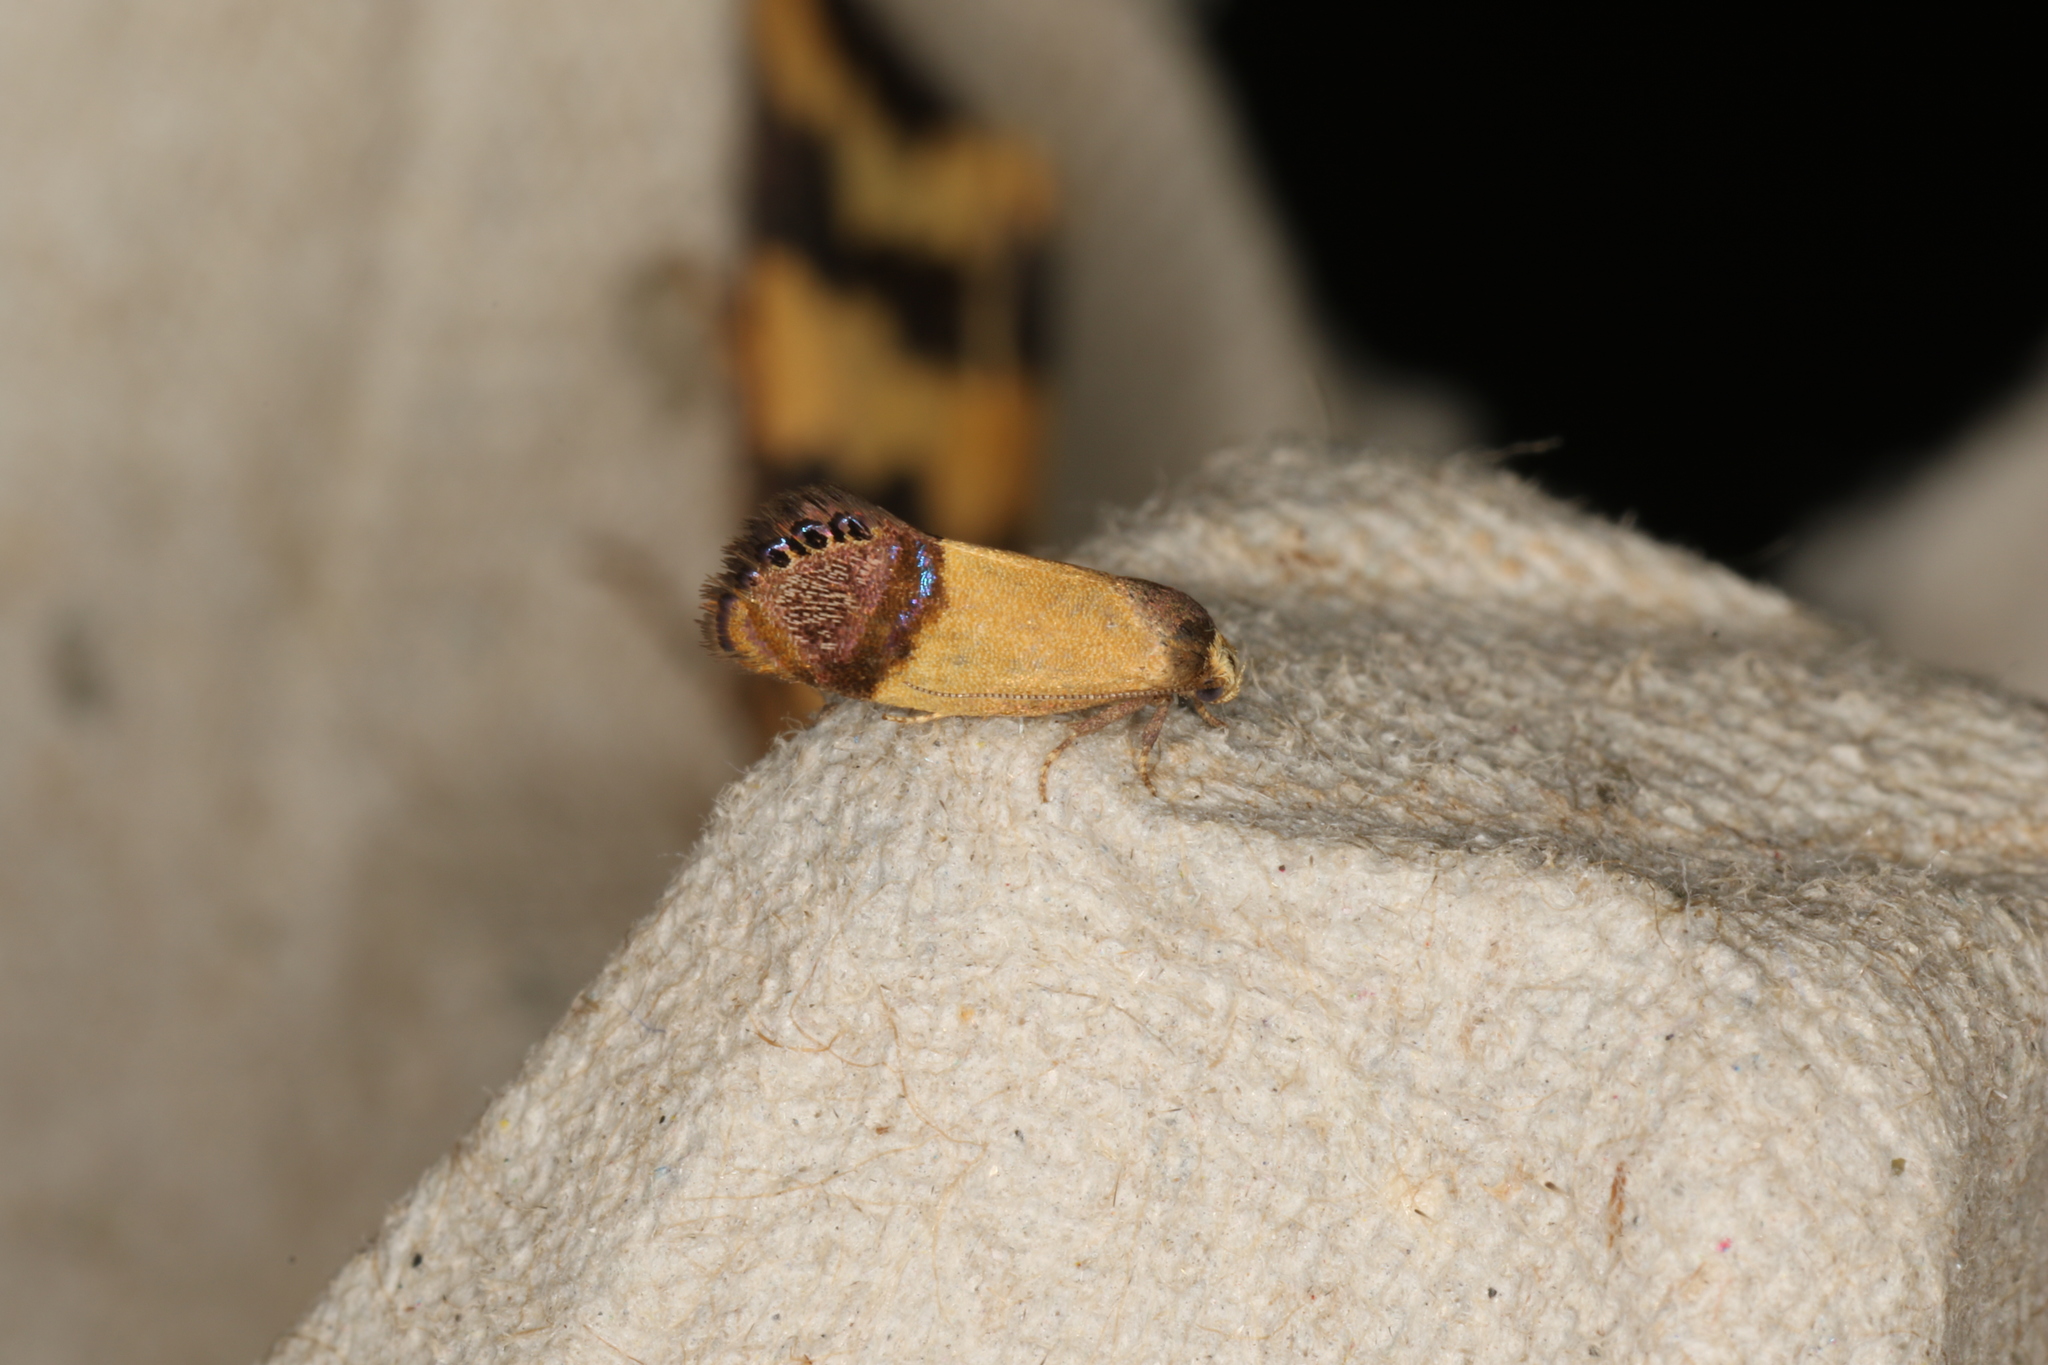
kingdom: Animalia
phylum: Arthropoda
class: Insecta
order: Lepidoptera
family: Depressariidae
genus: Eupselia
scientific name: Eupselia satrapella
